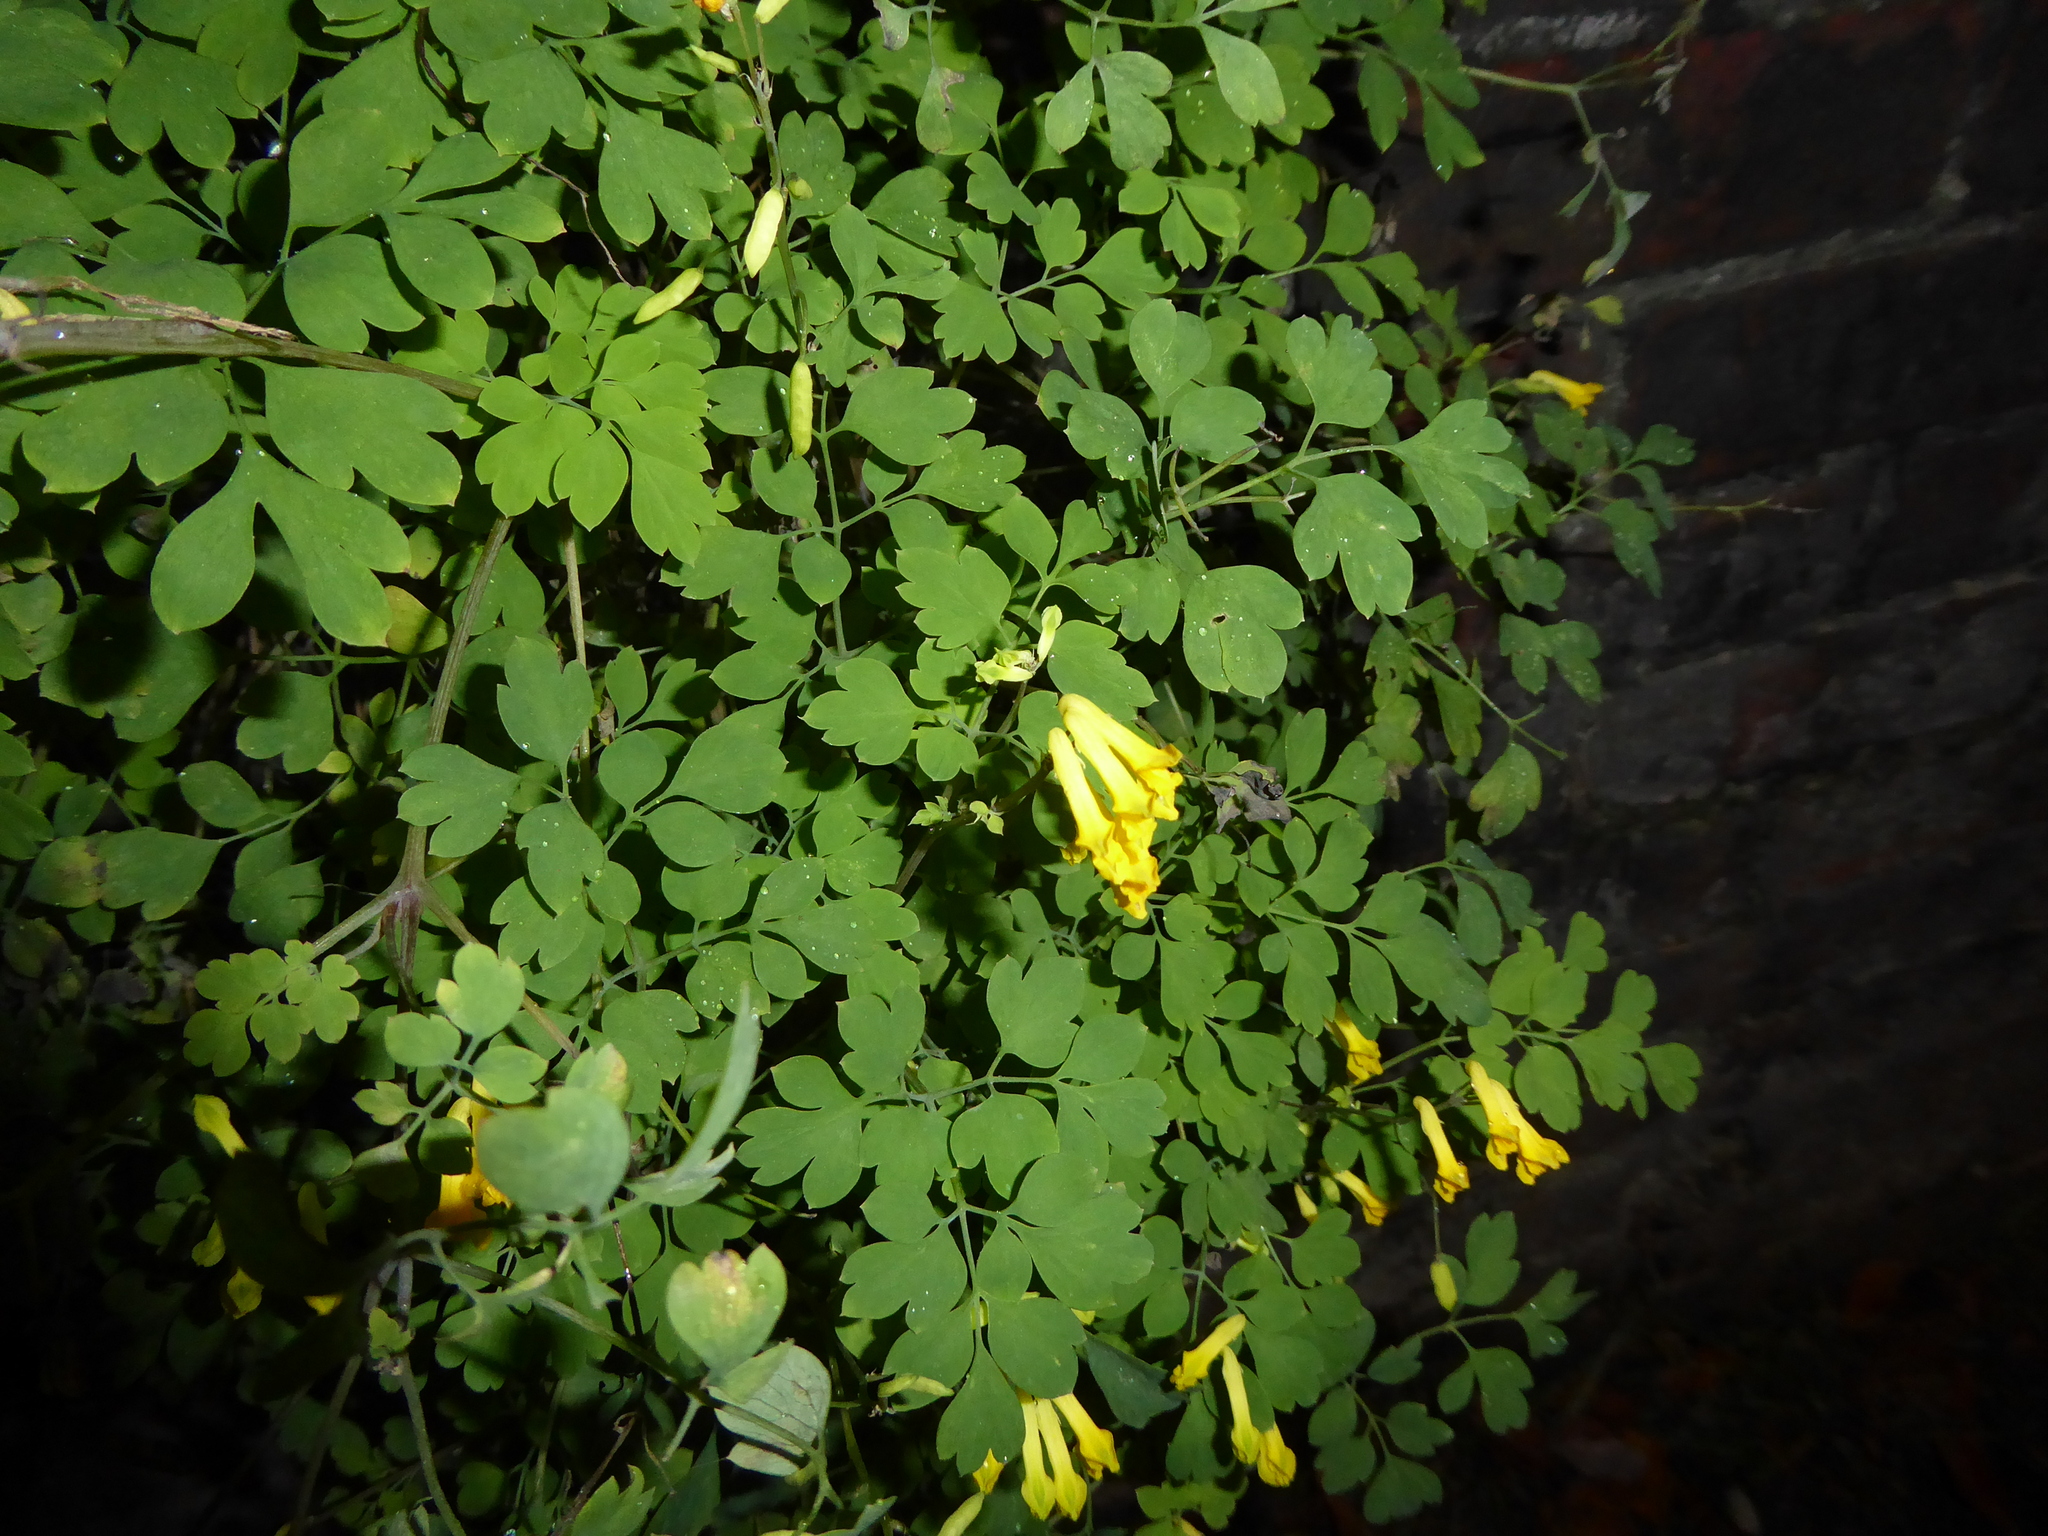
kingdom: Plantae
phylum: Tracheophyta
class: Magnoliopsida
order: Ranunculales
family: Papaveraceae
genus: Pseudofumaria
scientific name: Pseudofumaria lutea
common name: Yellow corydalis
